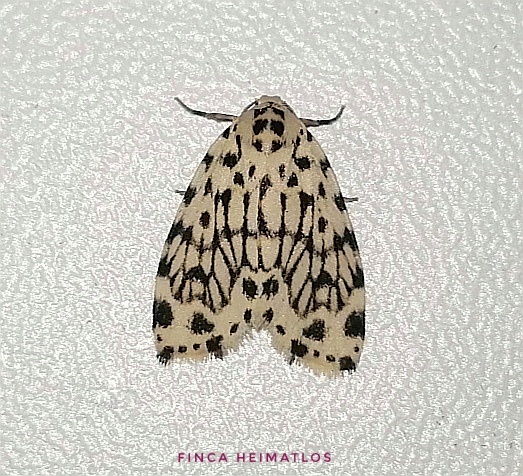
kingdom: Animalia
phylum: Arthropoda
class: Insecta
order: Lepidoptera
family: Erebidae
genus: Clemensia
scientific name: Clemensia reticulata
